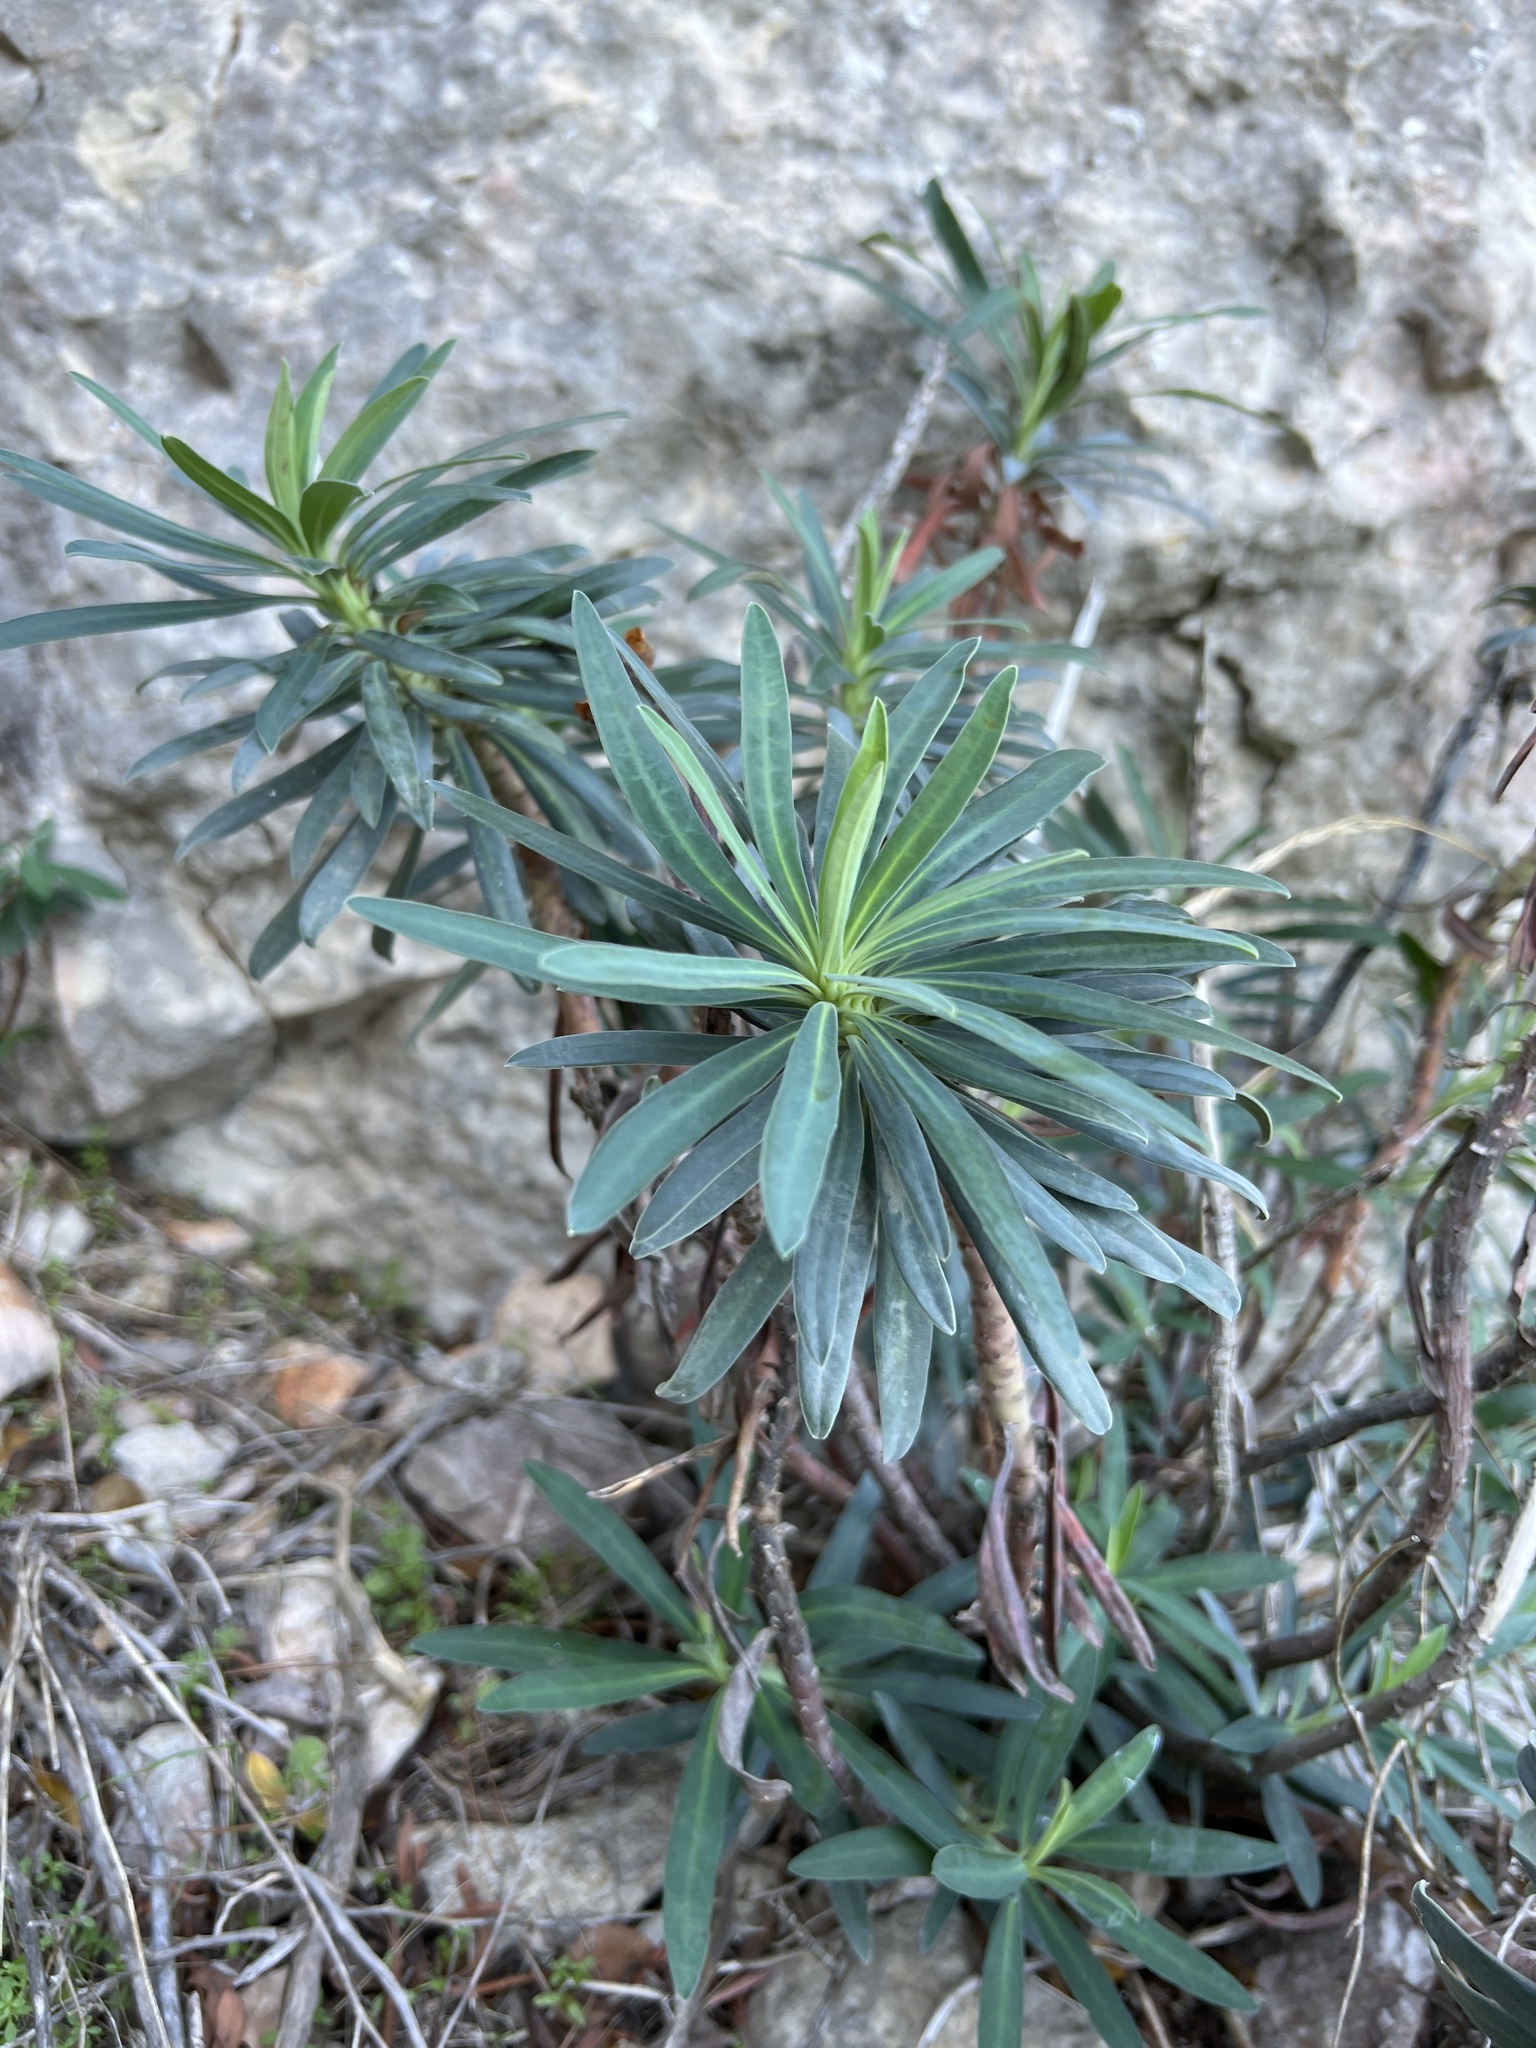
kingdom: Plantae
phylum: Tracheophyta
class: Magnoliopsida
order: Malpighiales
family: Euphorbiaceae
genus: Euphorbia
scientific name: Euphorbia characias
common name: Mediterranean spurge
